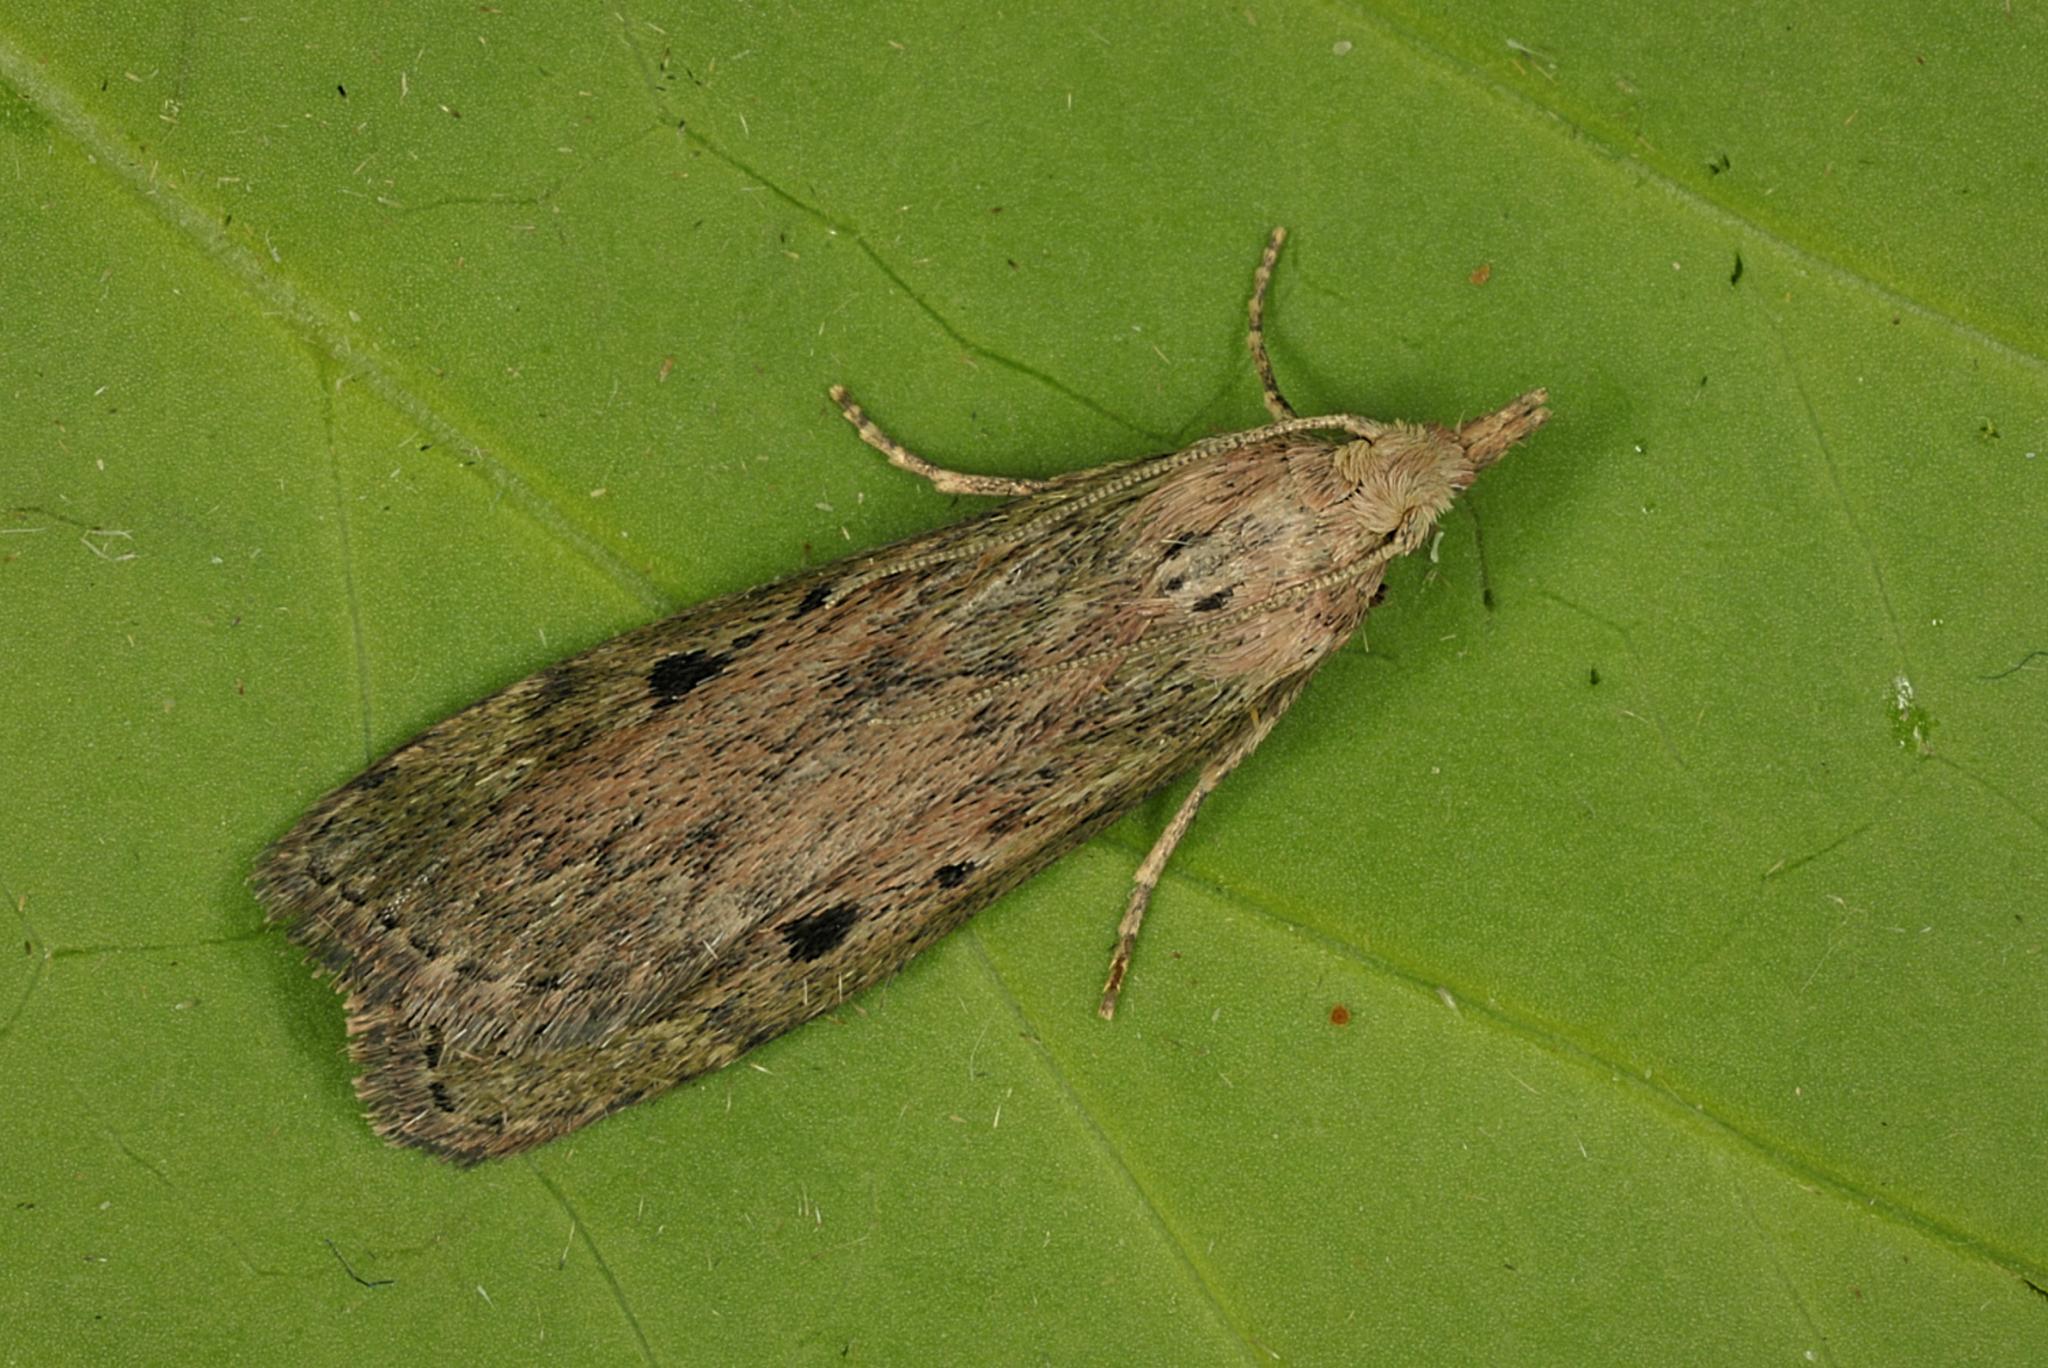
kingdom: Animalia
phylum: Arthropoda
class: Insecta
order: Lepidoptera
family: Pyralidae
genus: Aphomia
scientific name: Aphomia sociella
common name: Bee moth
